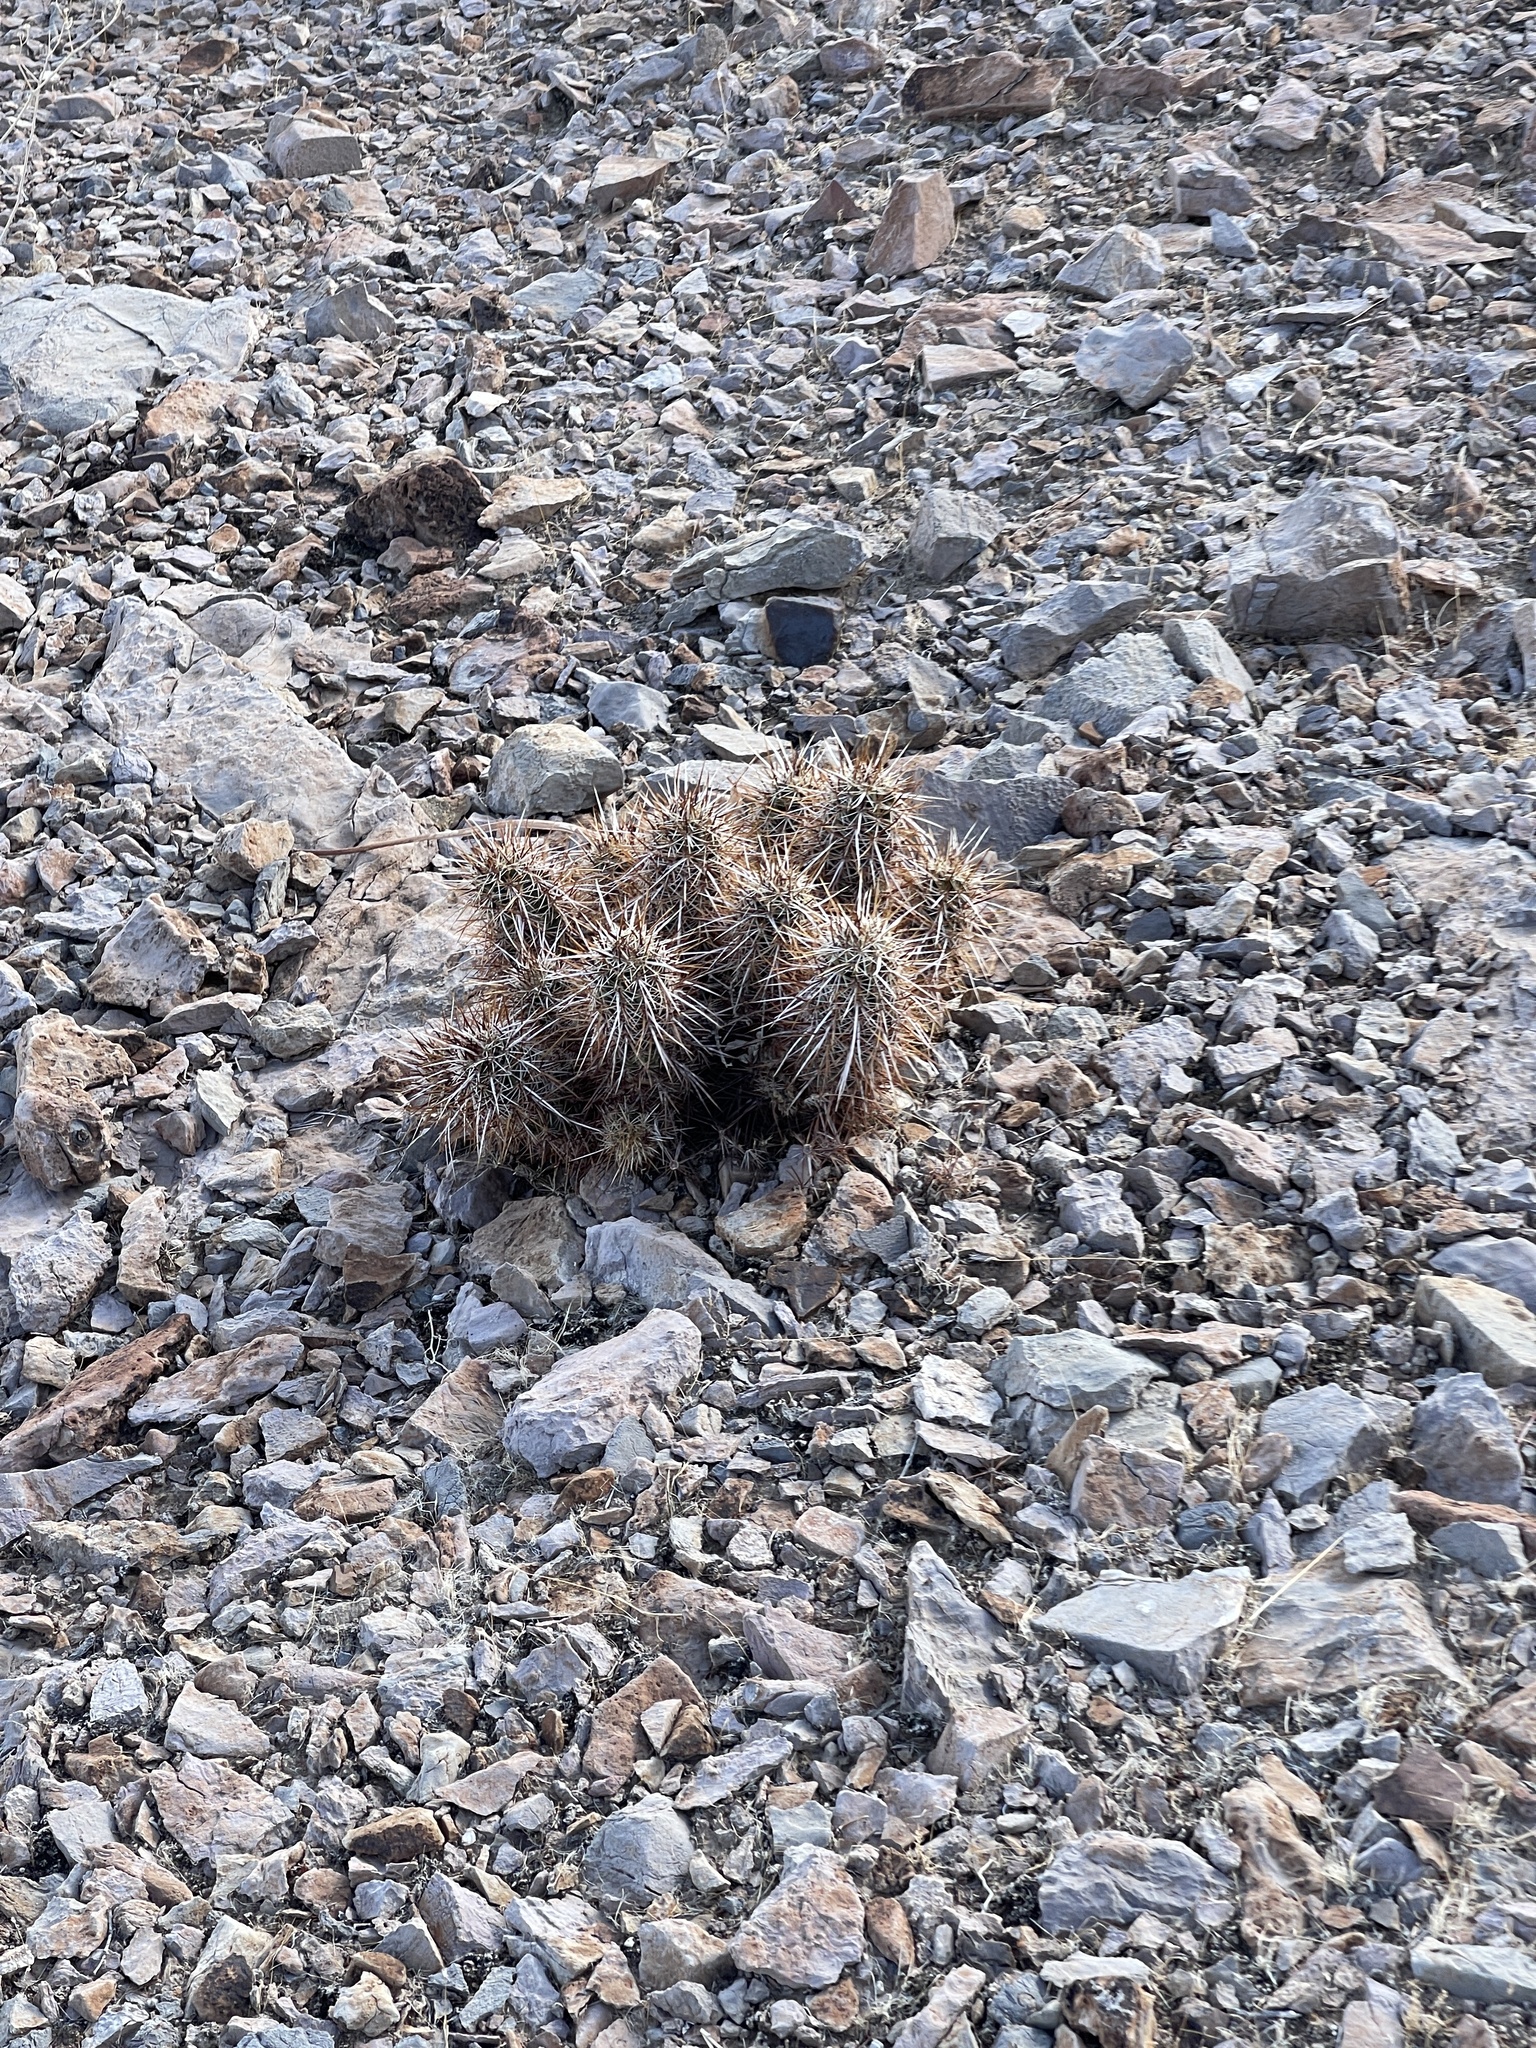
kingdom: Plantae
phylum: Tracheophyta
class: Magnoliopsida
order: Caryophyllales
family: Cactaceae
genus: Echinocereus
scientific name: Echinocereus engelmannii
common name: Engelmann's hedgehog cactus
